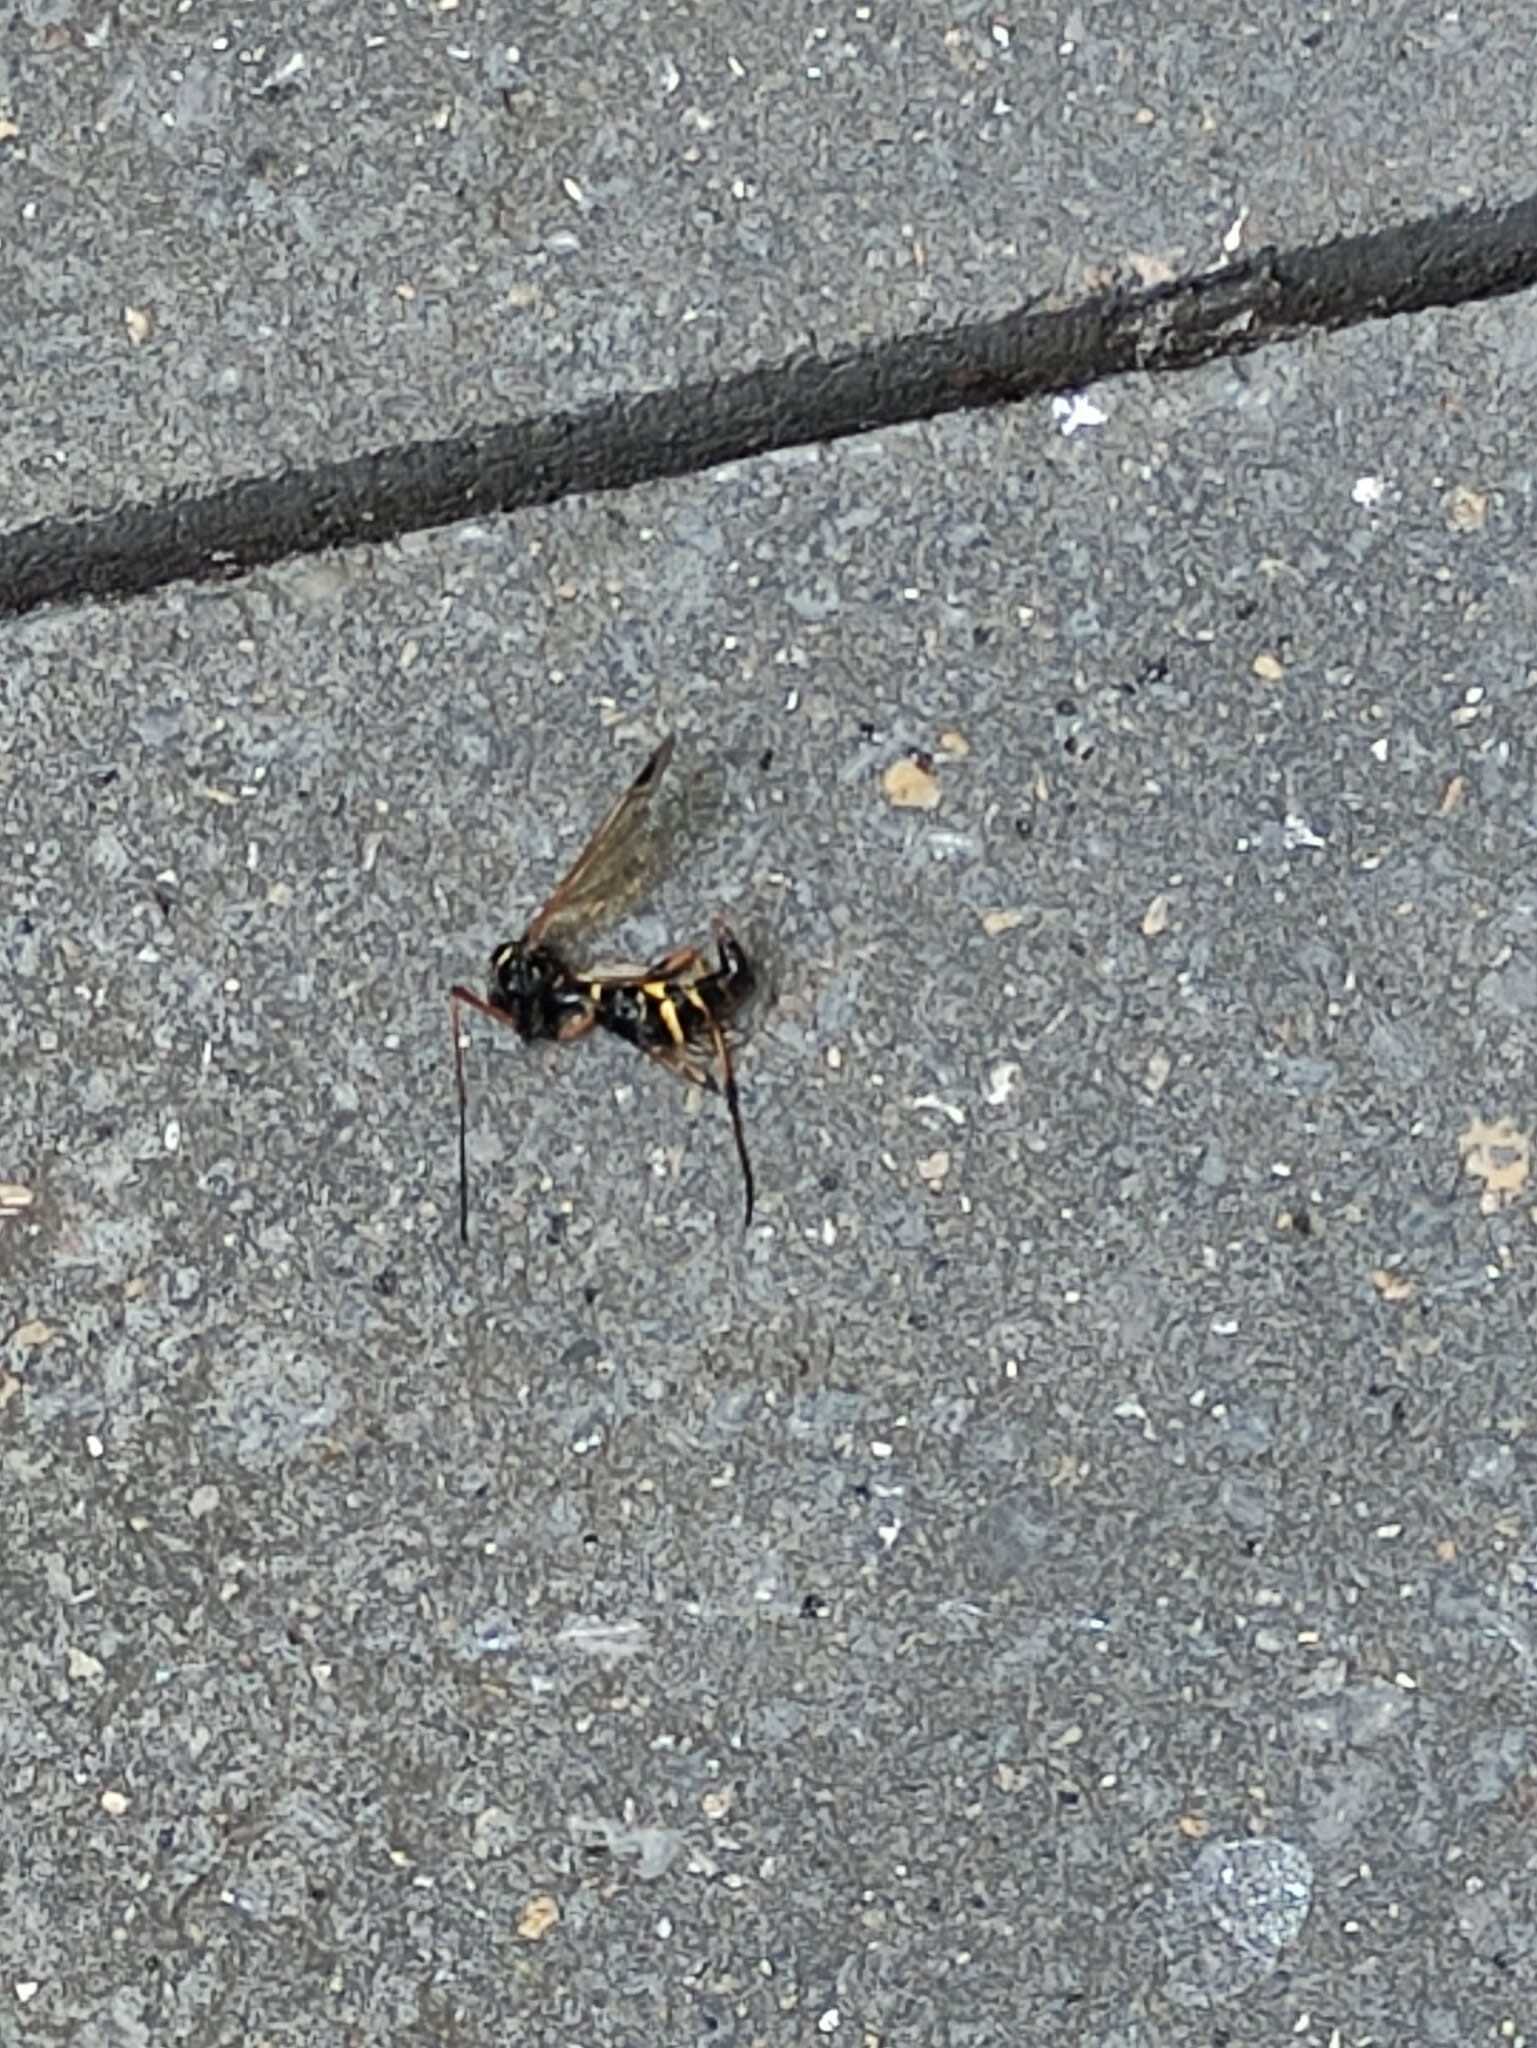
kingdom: Animalia
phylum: Arthropoda
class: Insecta
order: Diptera
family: Tipulidae
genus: Ctenophora
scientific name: Ctenophora festiva
